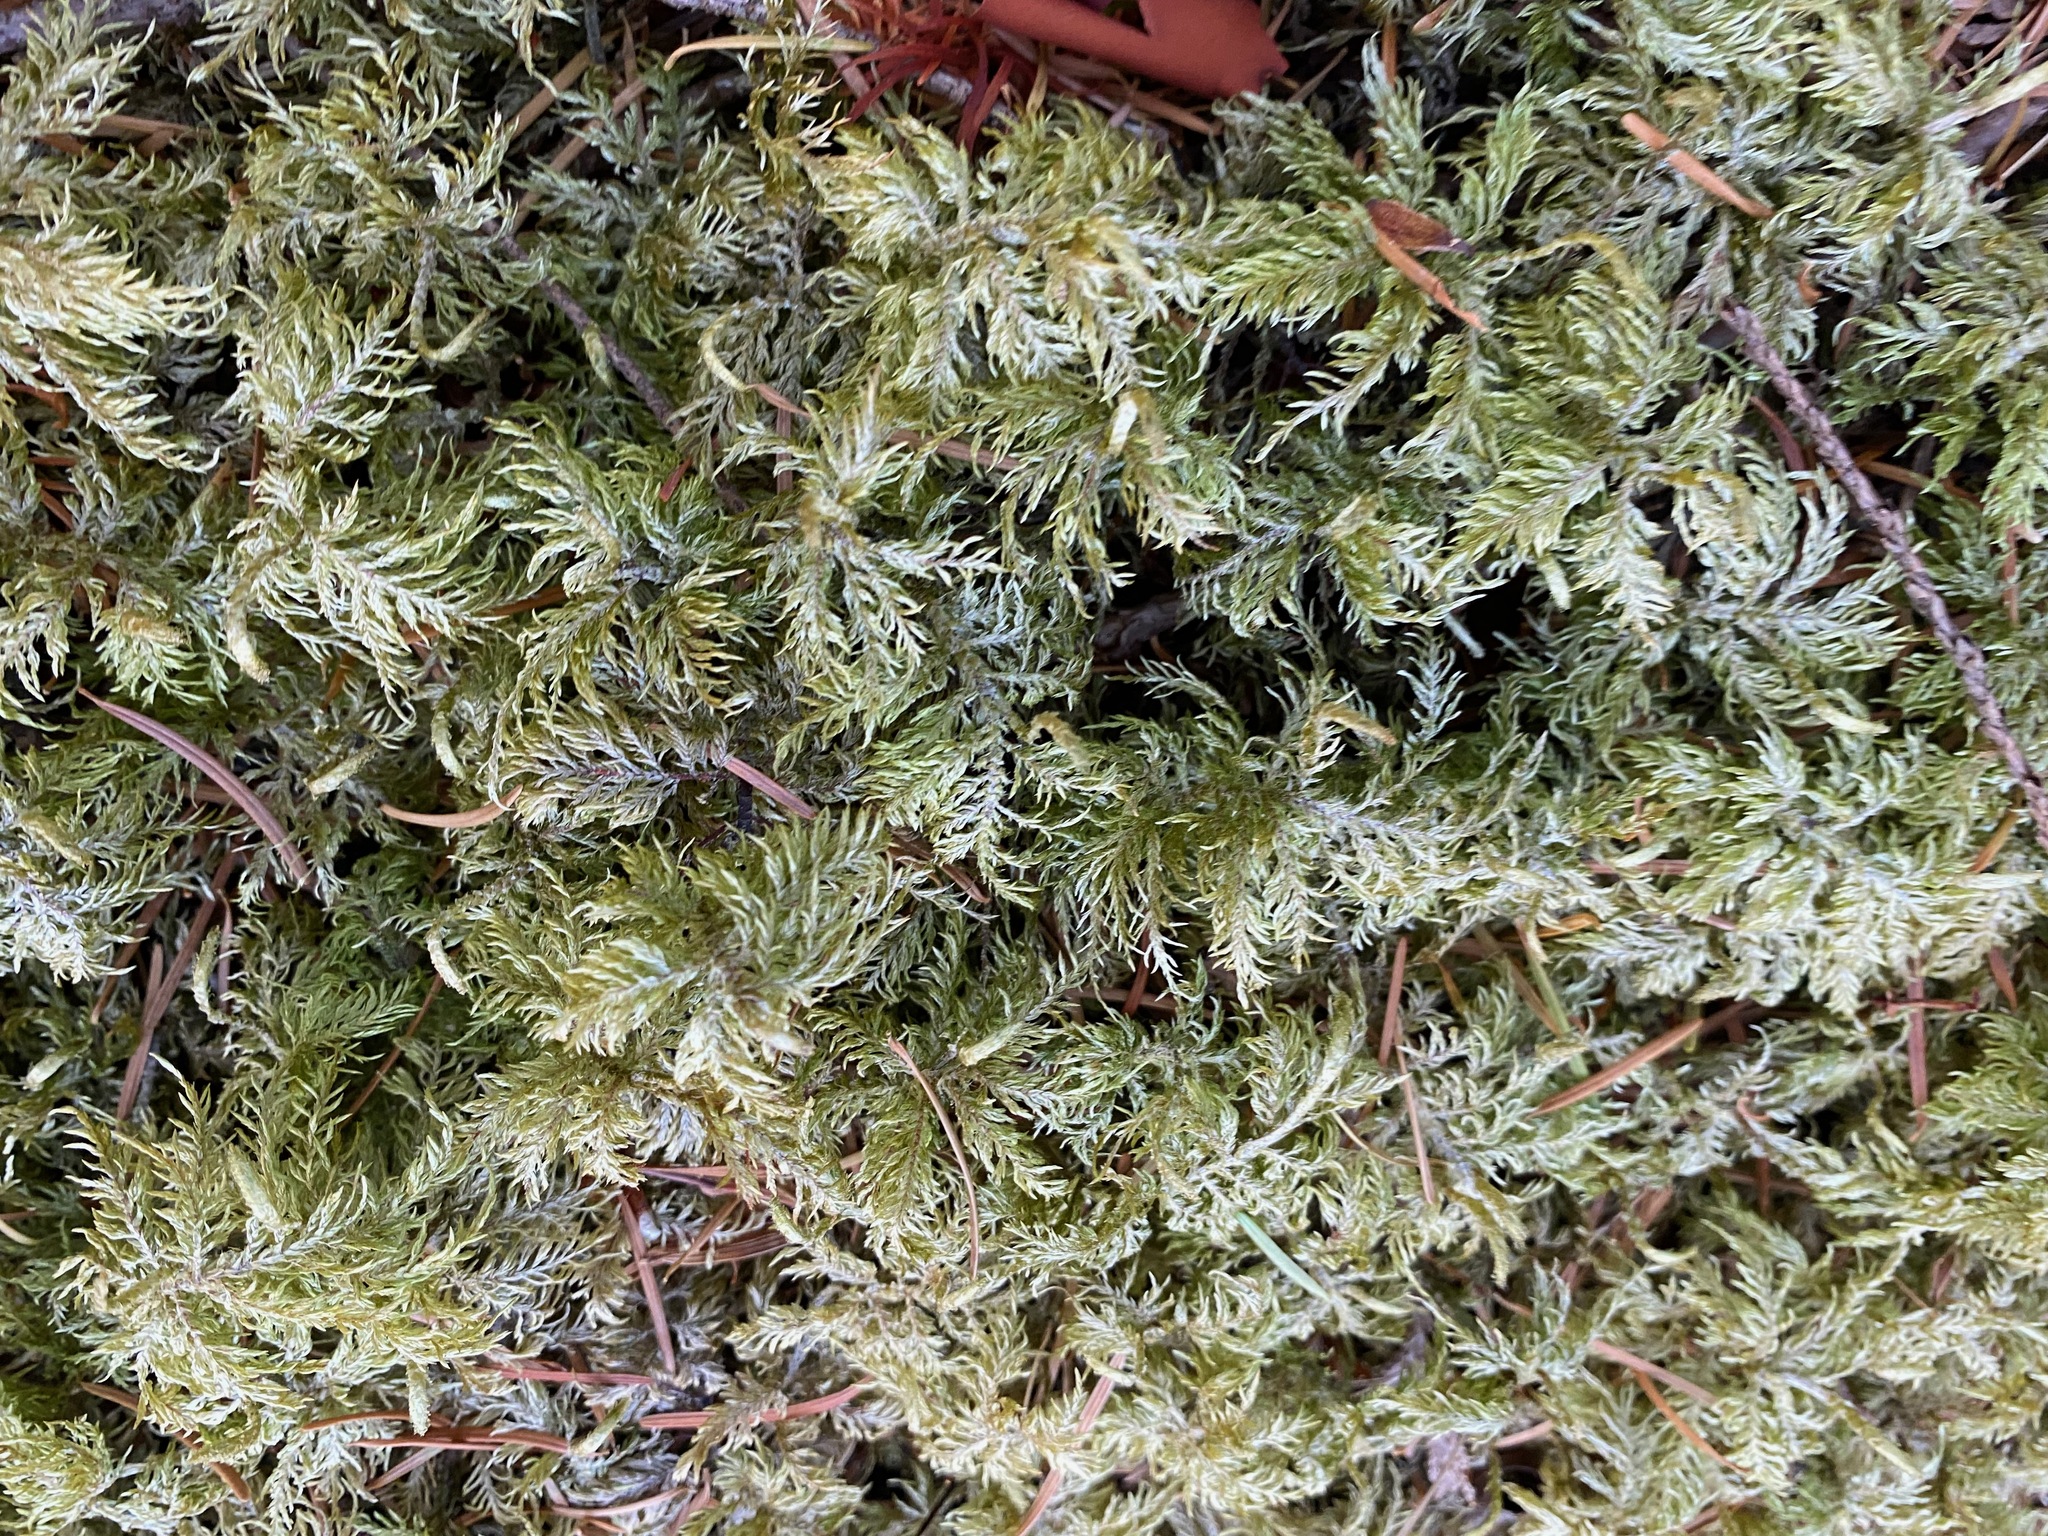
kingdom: Plantae
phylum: Bryophyta
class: Bryopsida
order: Hypnales
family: Hylocomiaceae
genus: Hylocomium
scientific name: Hylocomium splendens
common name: Stairstep moss
